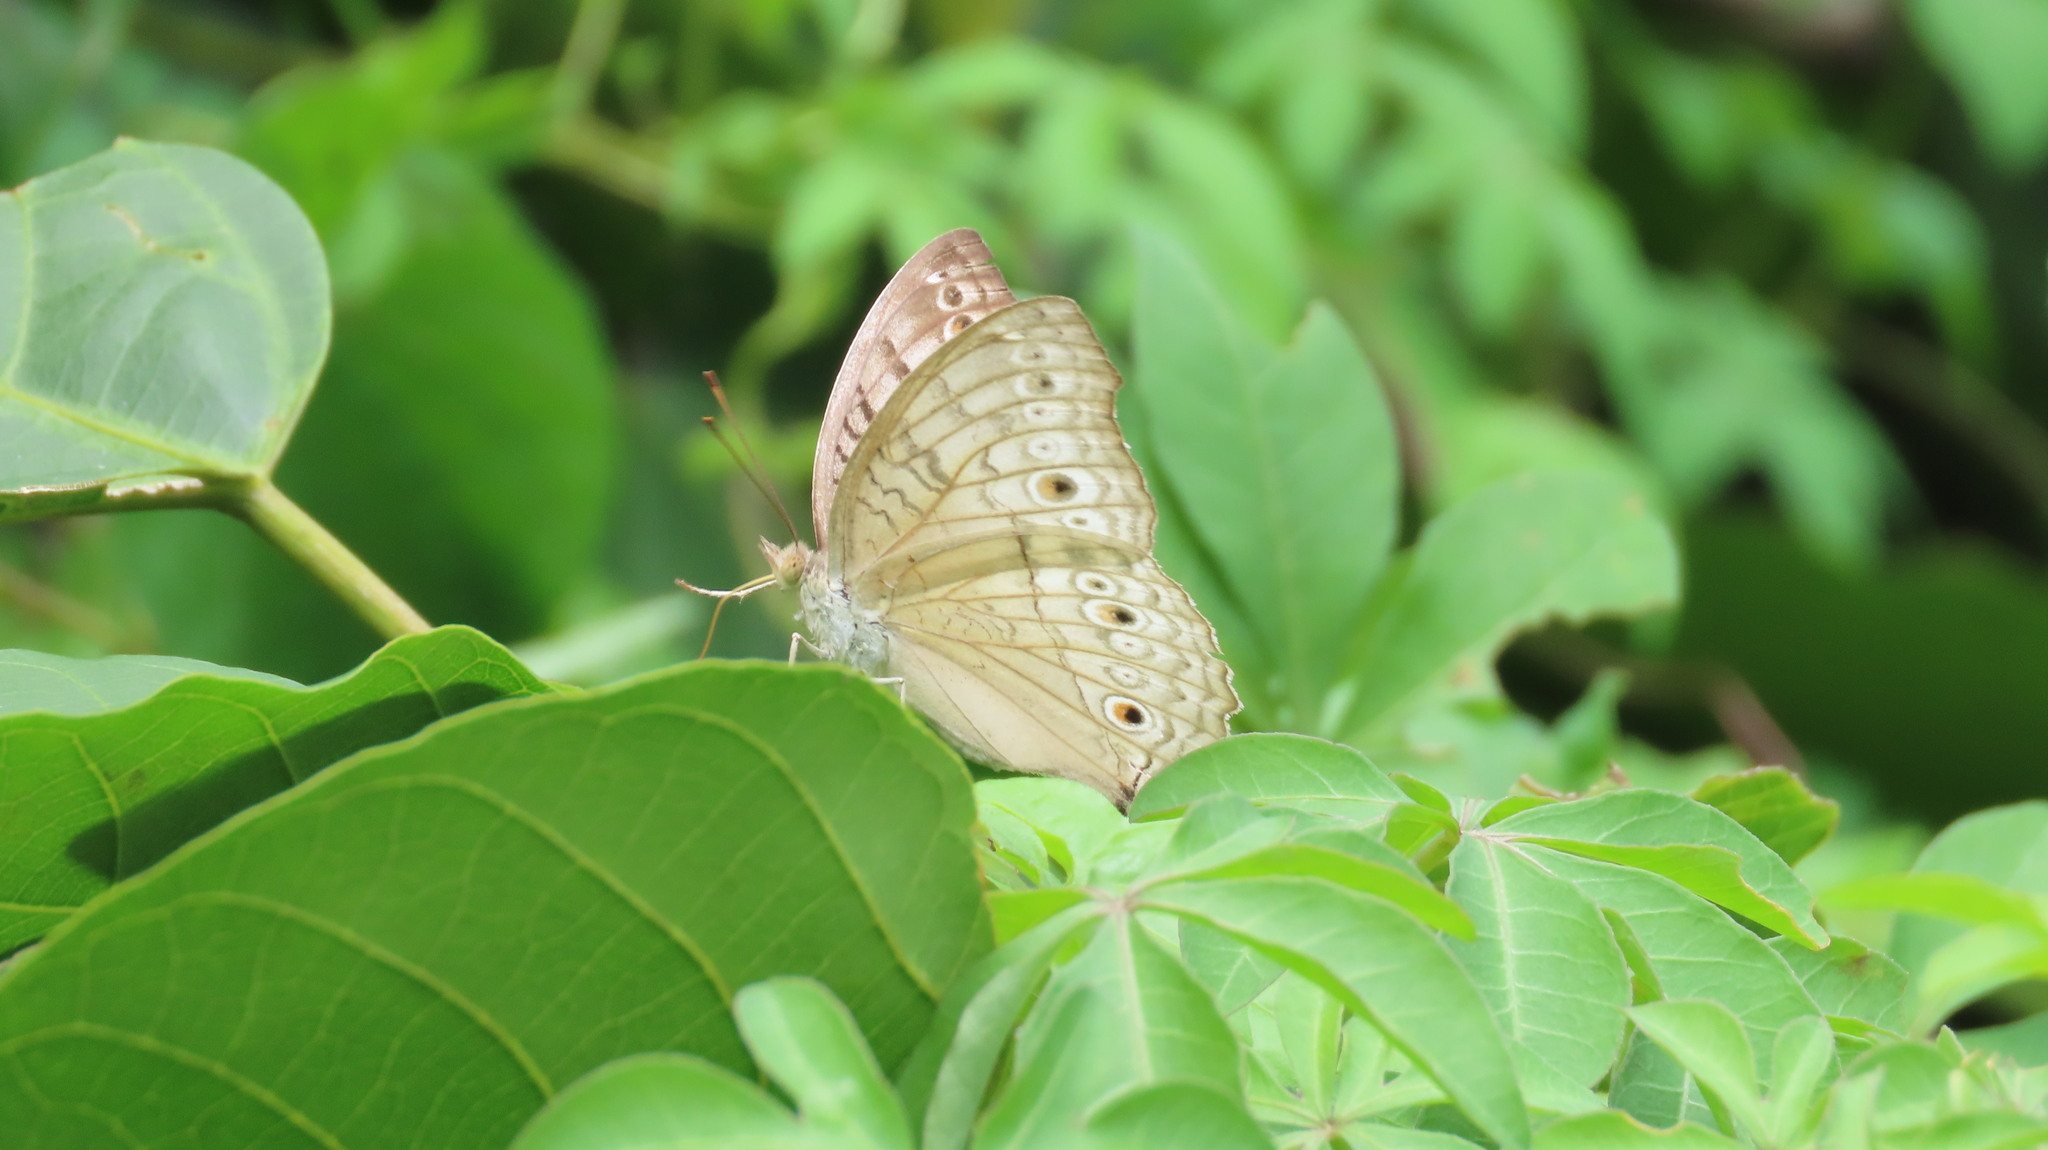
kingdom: Animalia
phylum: Arthropoda
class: Insecta
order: Lepidoptera
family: Nymphalidae
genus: Junonia
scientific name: Junonia atlites
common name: Grey pansy
